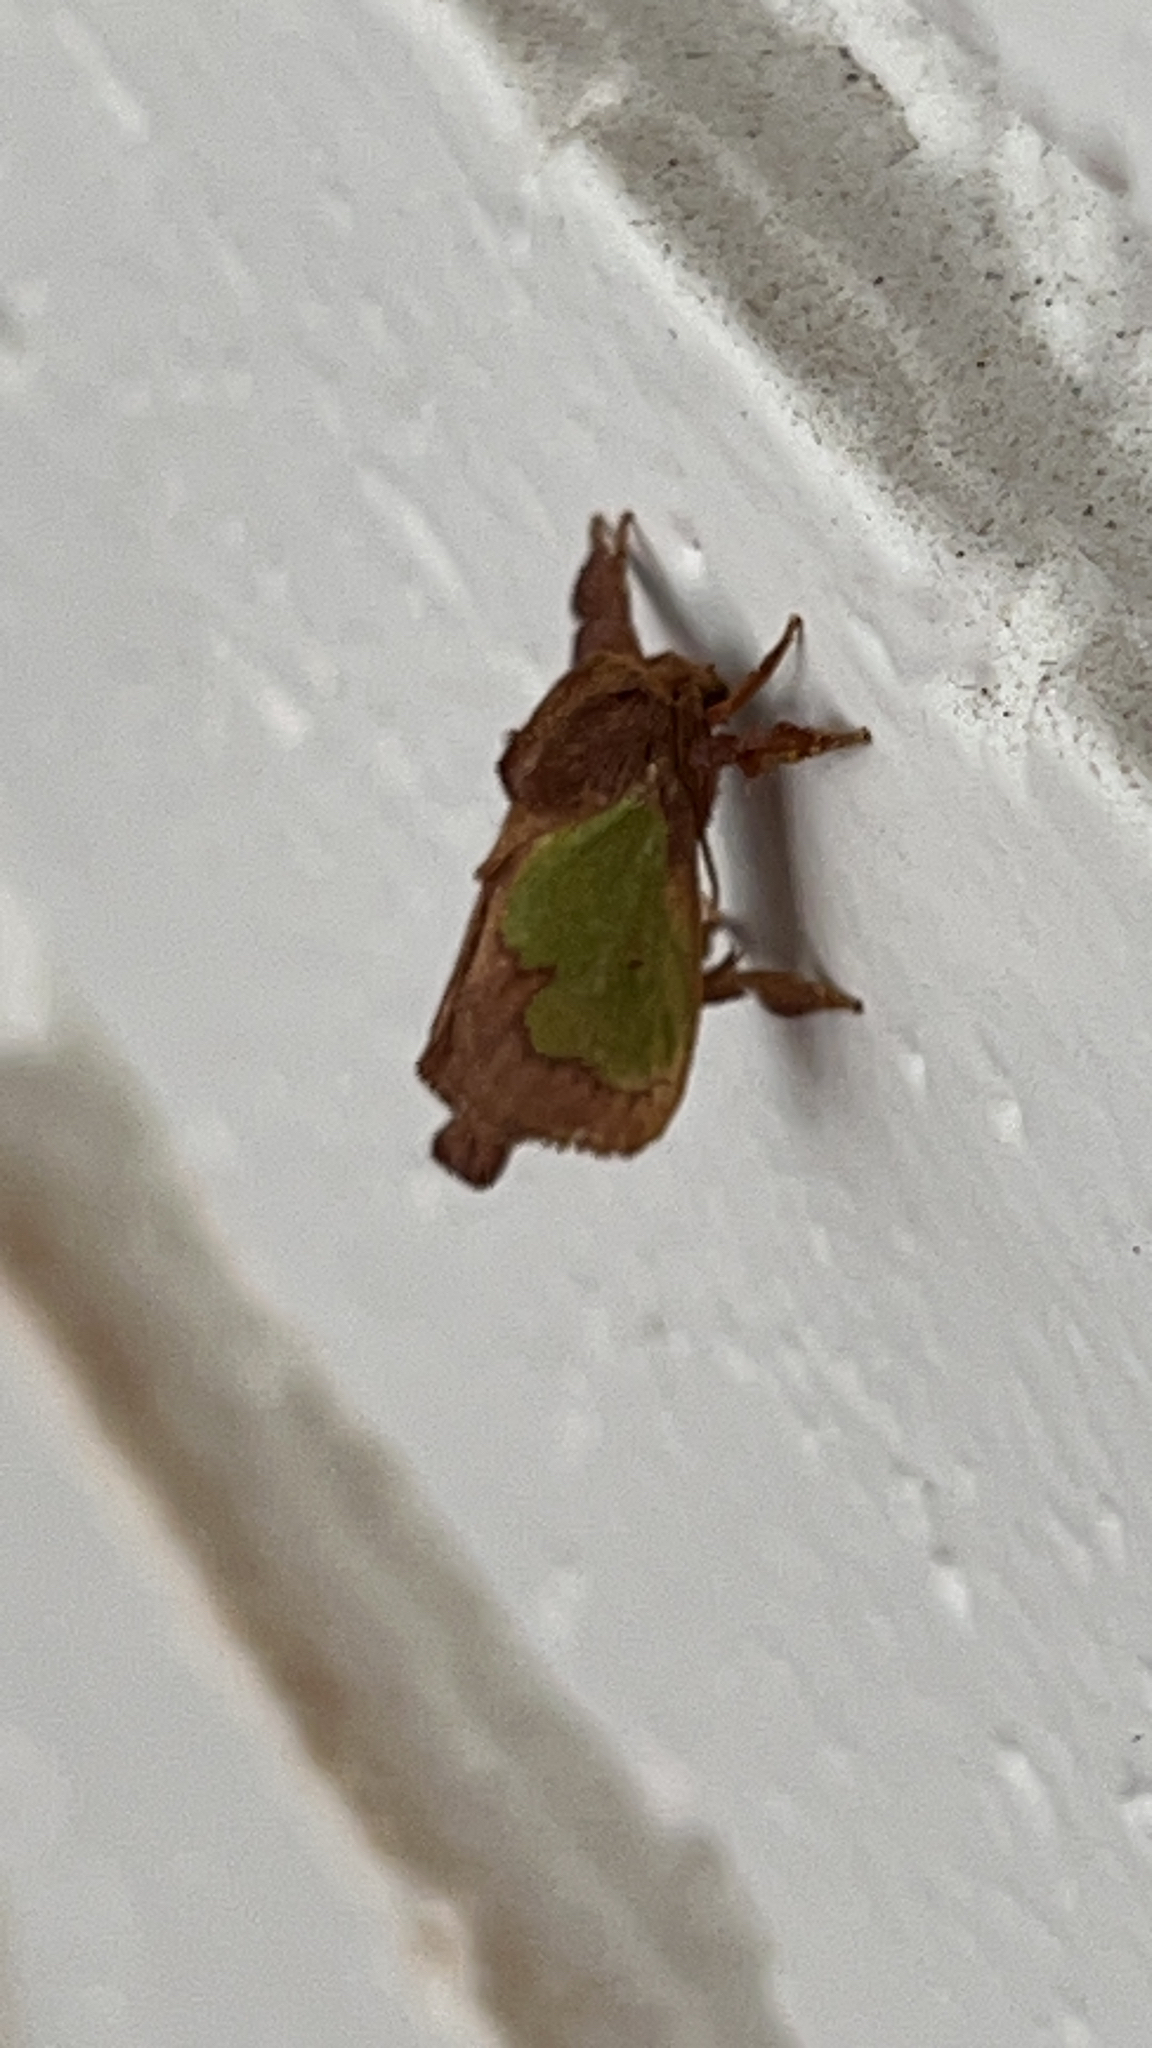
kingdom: Animalia
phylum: Arthropoda
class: Insecta
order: Lepidoptera
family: Limacodidae
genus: Euclea
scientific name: Euclea incisa
